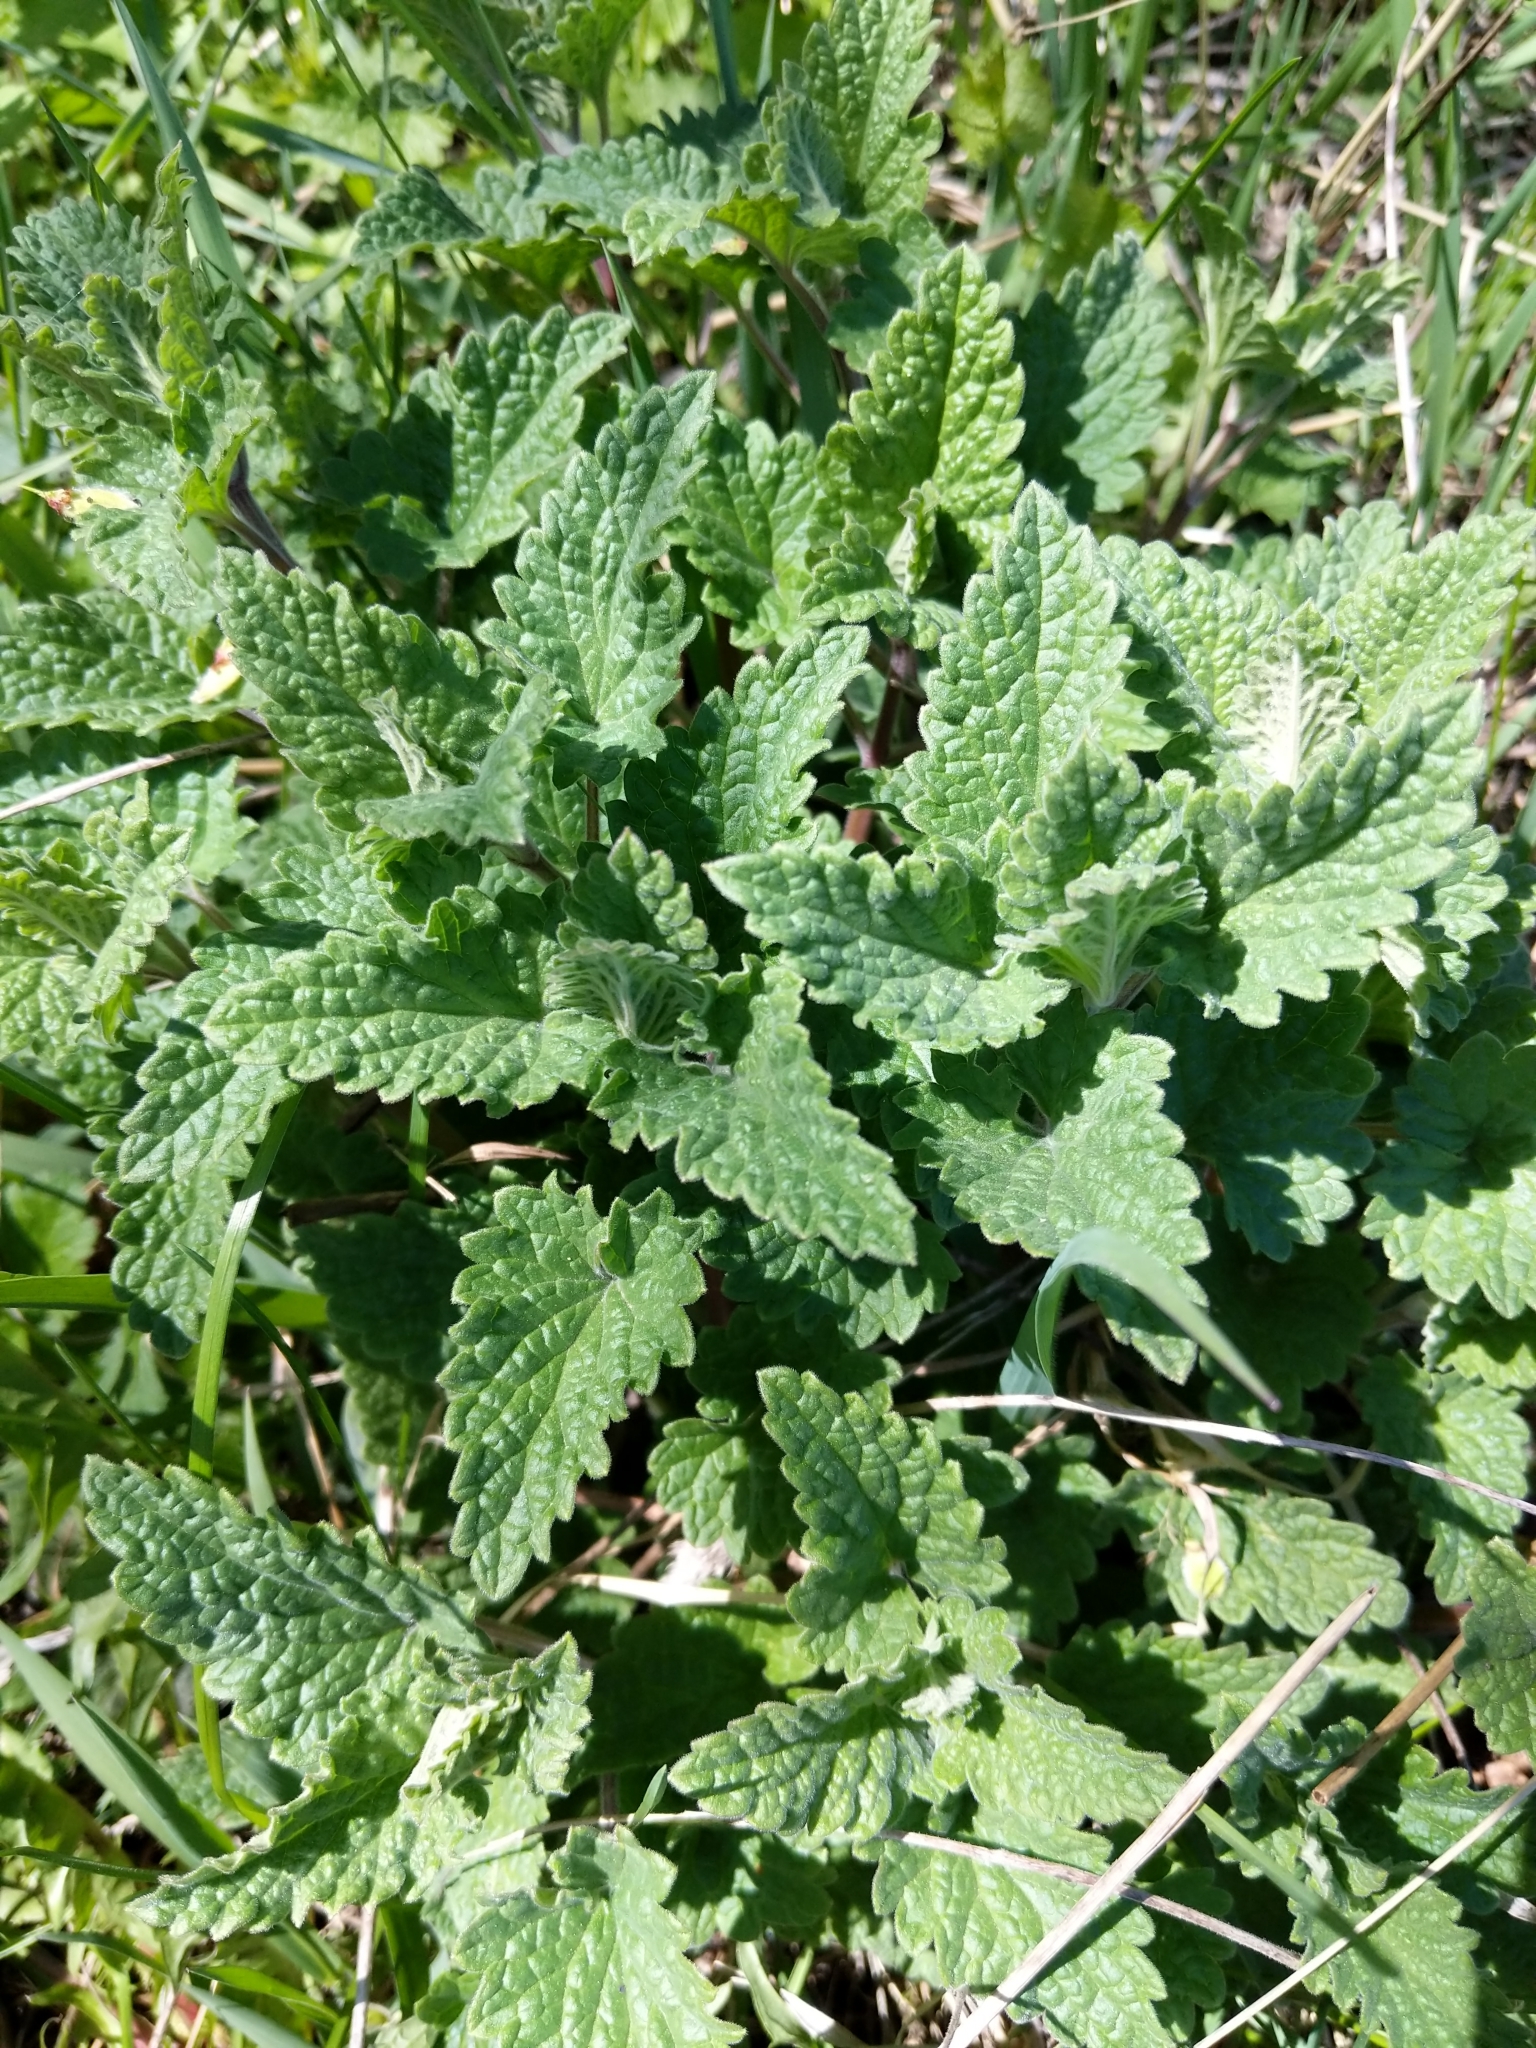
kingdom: Plantae
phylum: Tracheophyta
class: Magnoliopsida
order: Lamiales
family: Lamiaceae
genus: Nepeta
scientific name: Nepeta cataria
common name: Catnip
